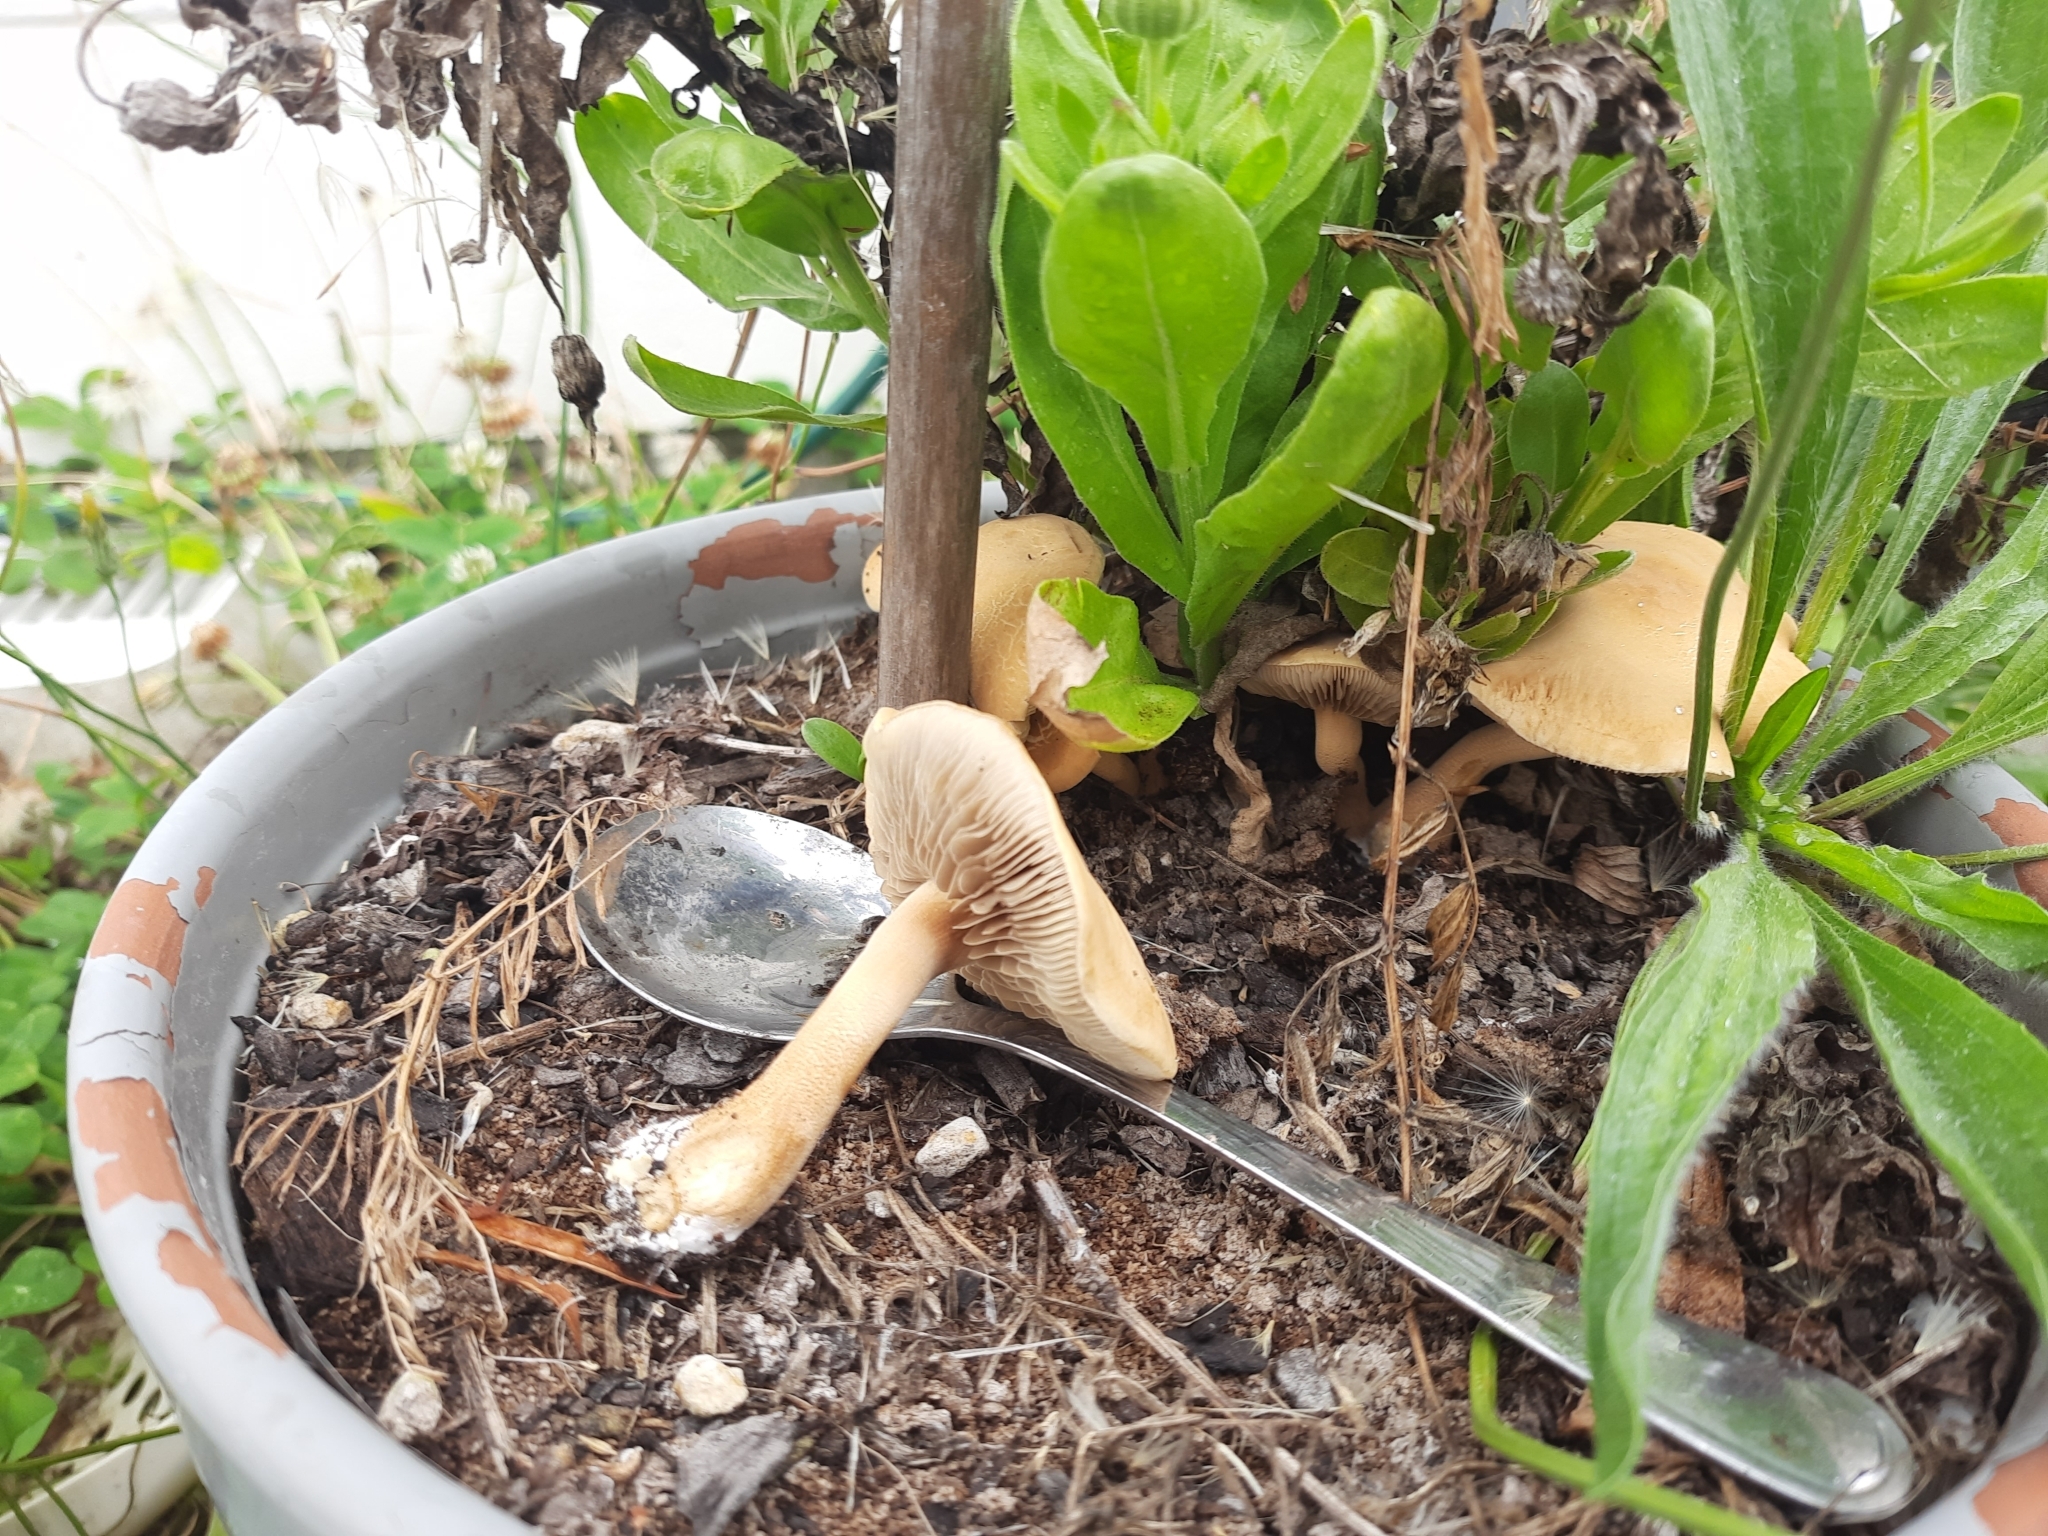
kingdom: Fungi
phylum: Basidiomycota
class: Agaricomycetes
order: Agaricales
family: Strophariaceae
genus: Agrocybe
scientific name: Agrocybe putaminum
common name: Mulch fieldcap
